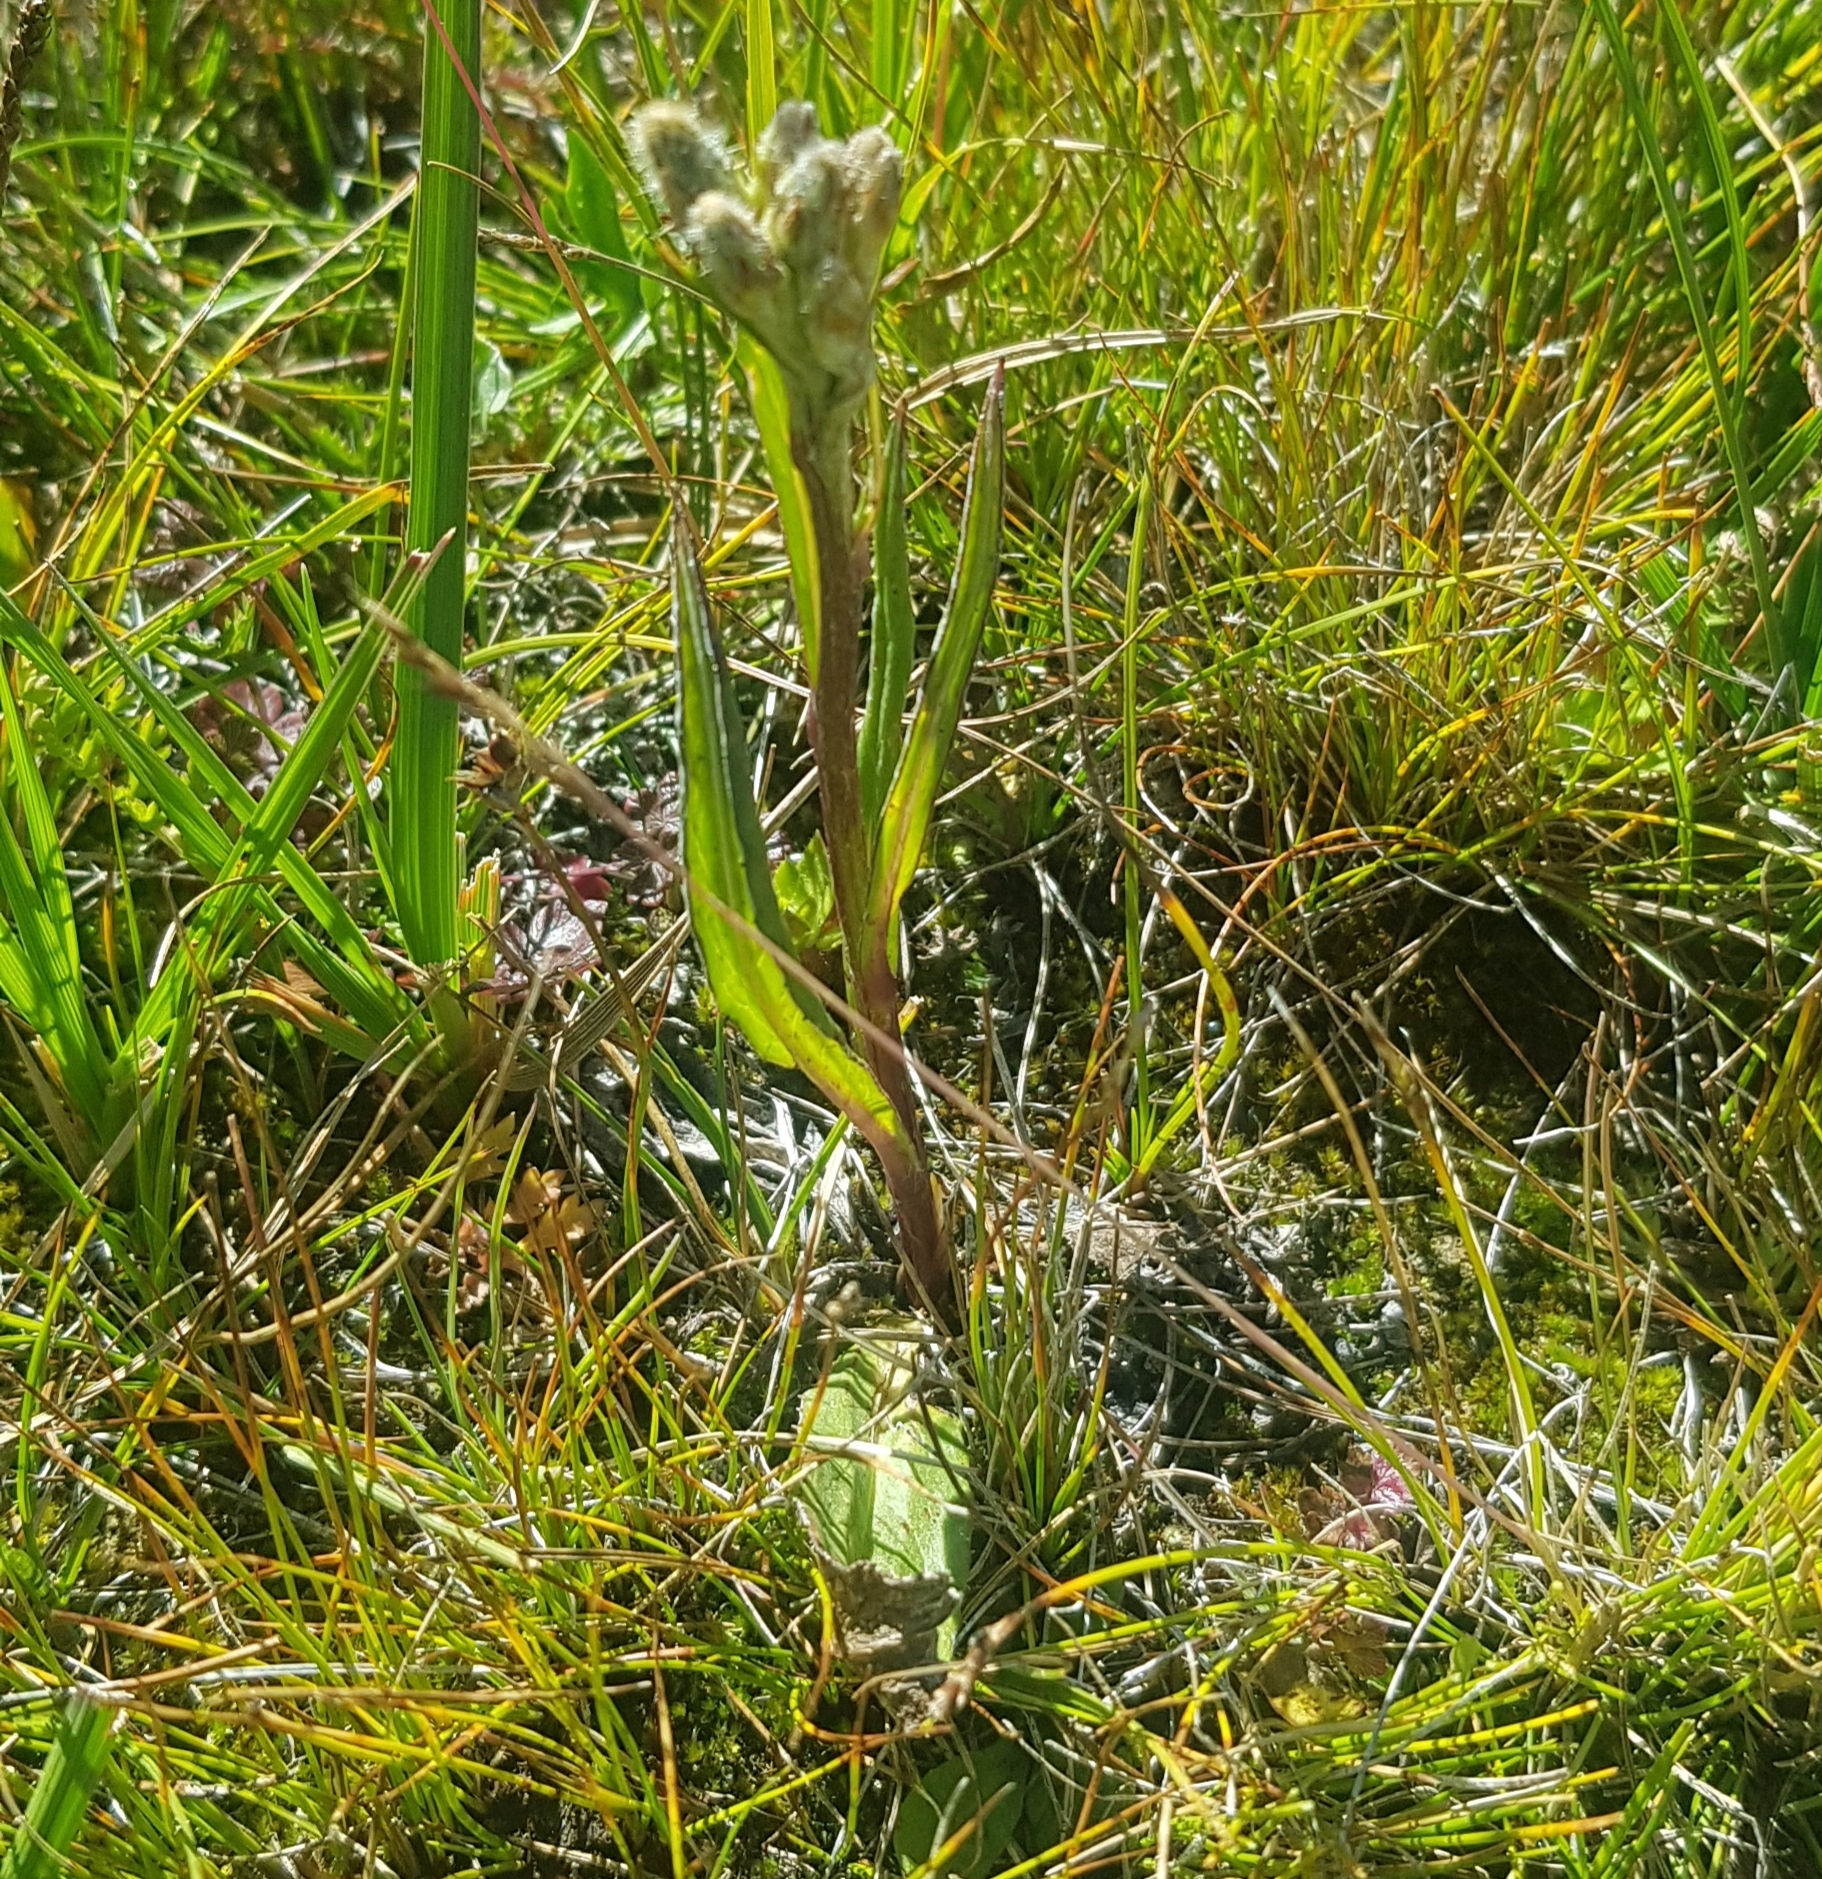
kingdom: Plantae
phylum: Tracheophyta
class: Magnoliopsida
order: Asterales
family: Asteraceae
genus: Saussurea
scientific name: Saussurea alpina
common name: Alpine saw-wort
